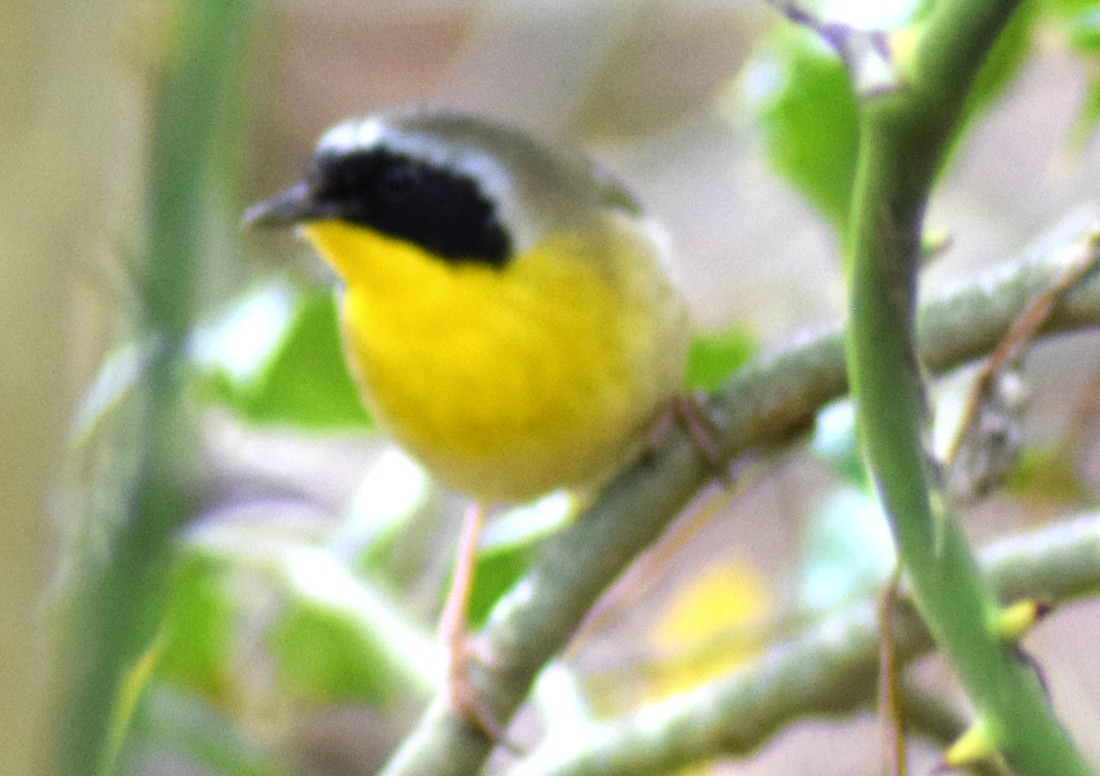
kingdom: Animalia
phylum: Chordata
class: Aves
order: Passeriformes
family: Parulidae
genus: Geothlypis
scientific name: Geothlypis trichas
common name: Common yellowthroat
